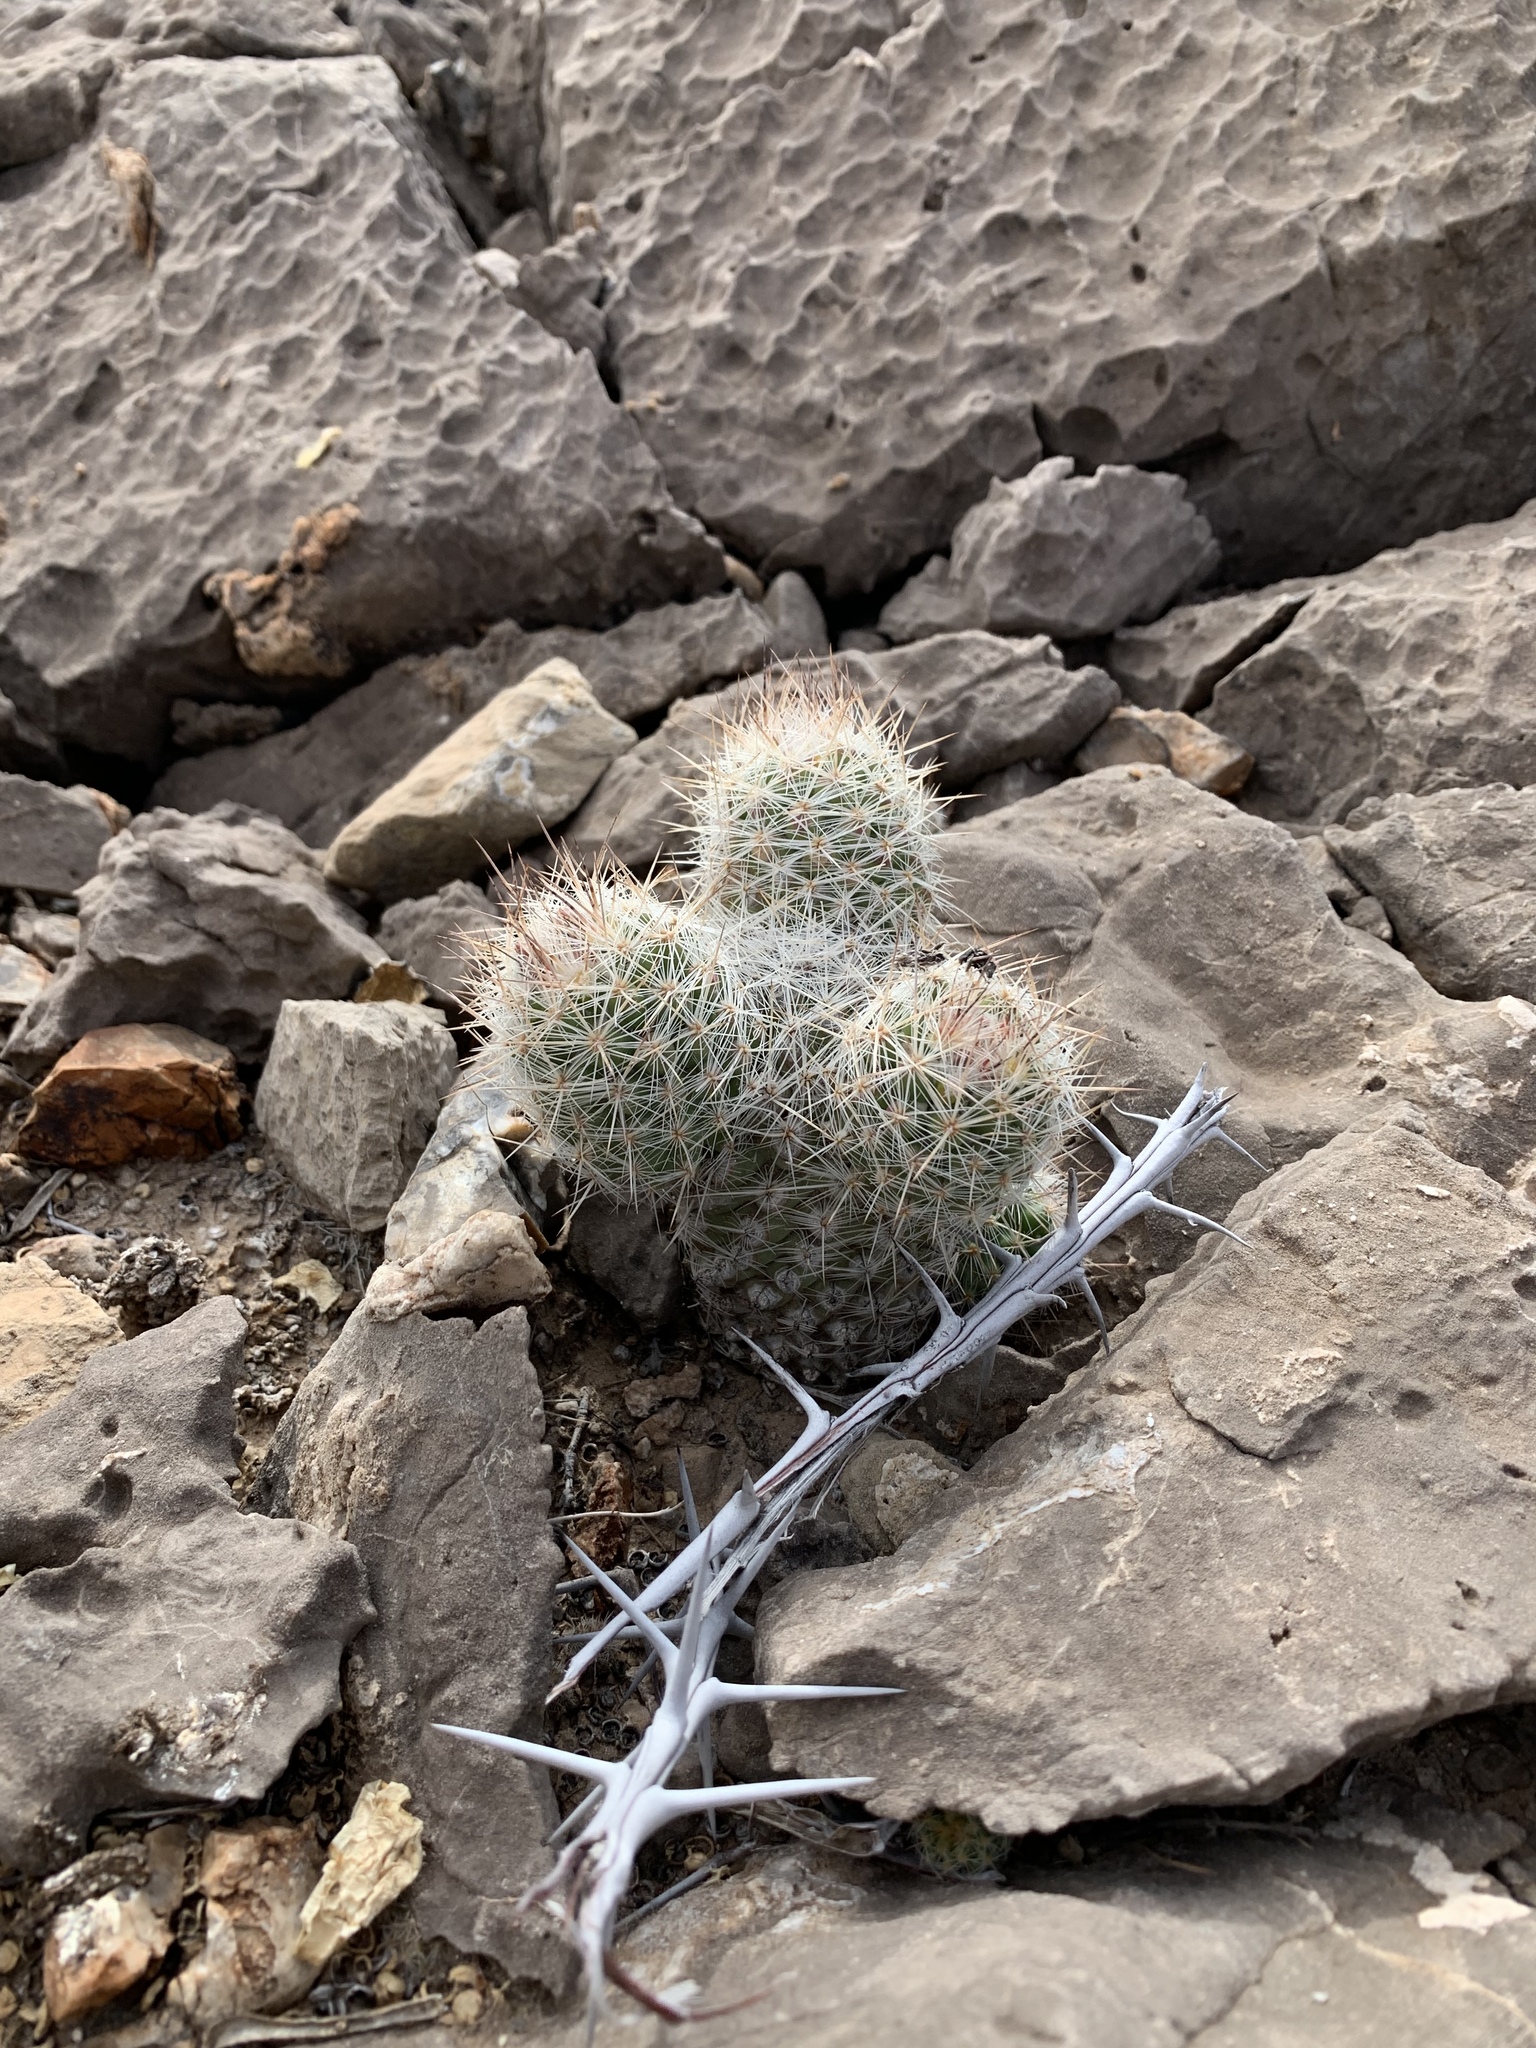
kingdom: Plantae
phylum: Tracheophyta
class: Magnoliopsida
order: Caryophyllales
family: Cactaceae
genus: Pelecyphora
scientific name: Pelecyphora tuberculosa
